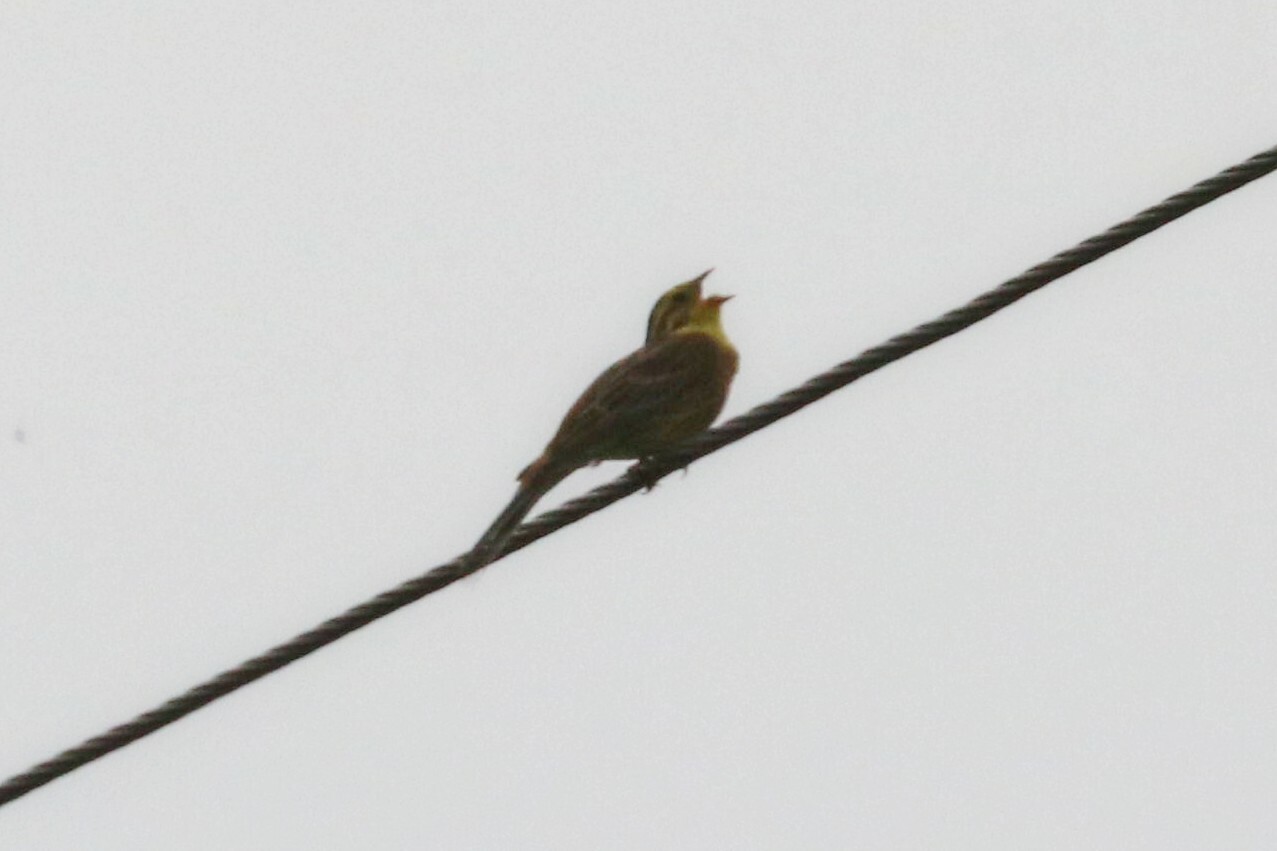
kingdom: Animalia
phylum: Chordata
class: Aves
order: Passeriformes
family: Emberizidae
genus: Emberiza
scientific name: Emberiza citrinella
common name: Yellowhammer
